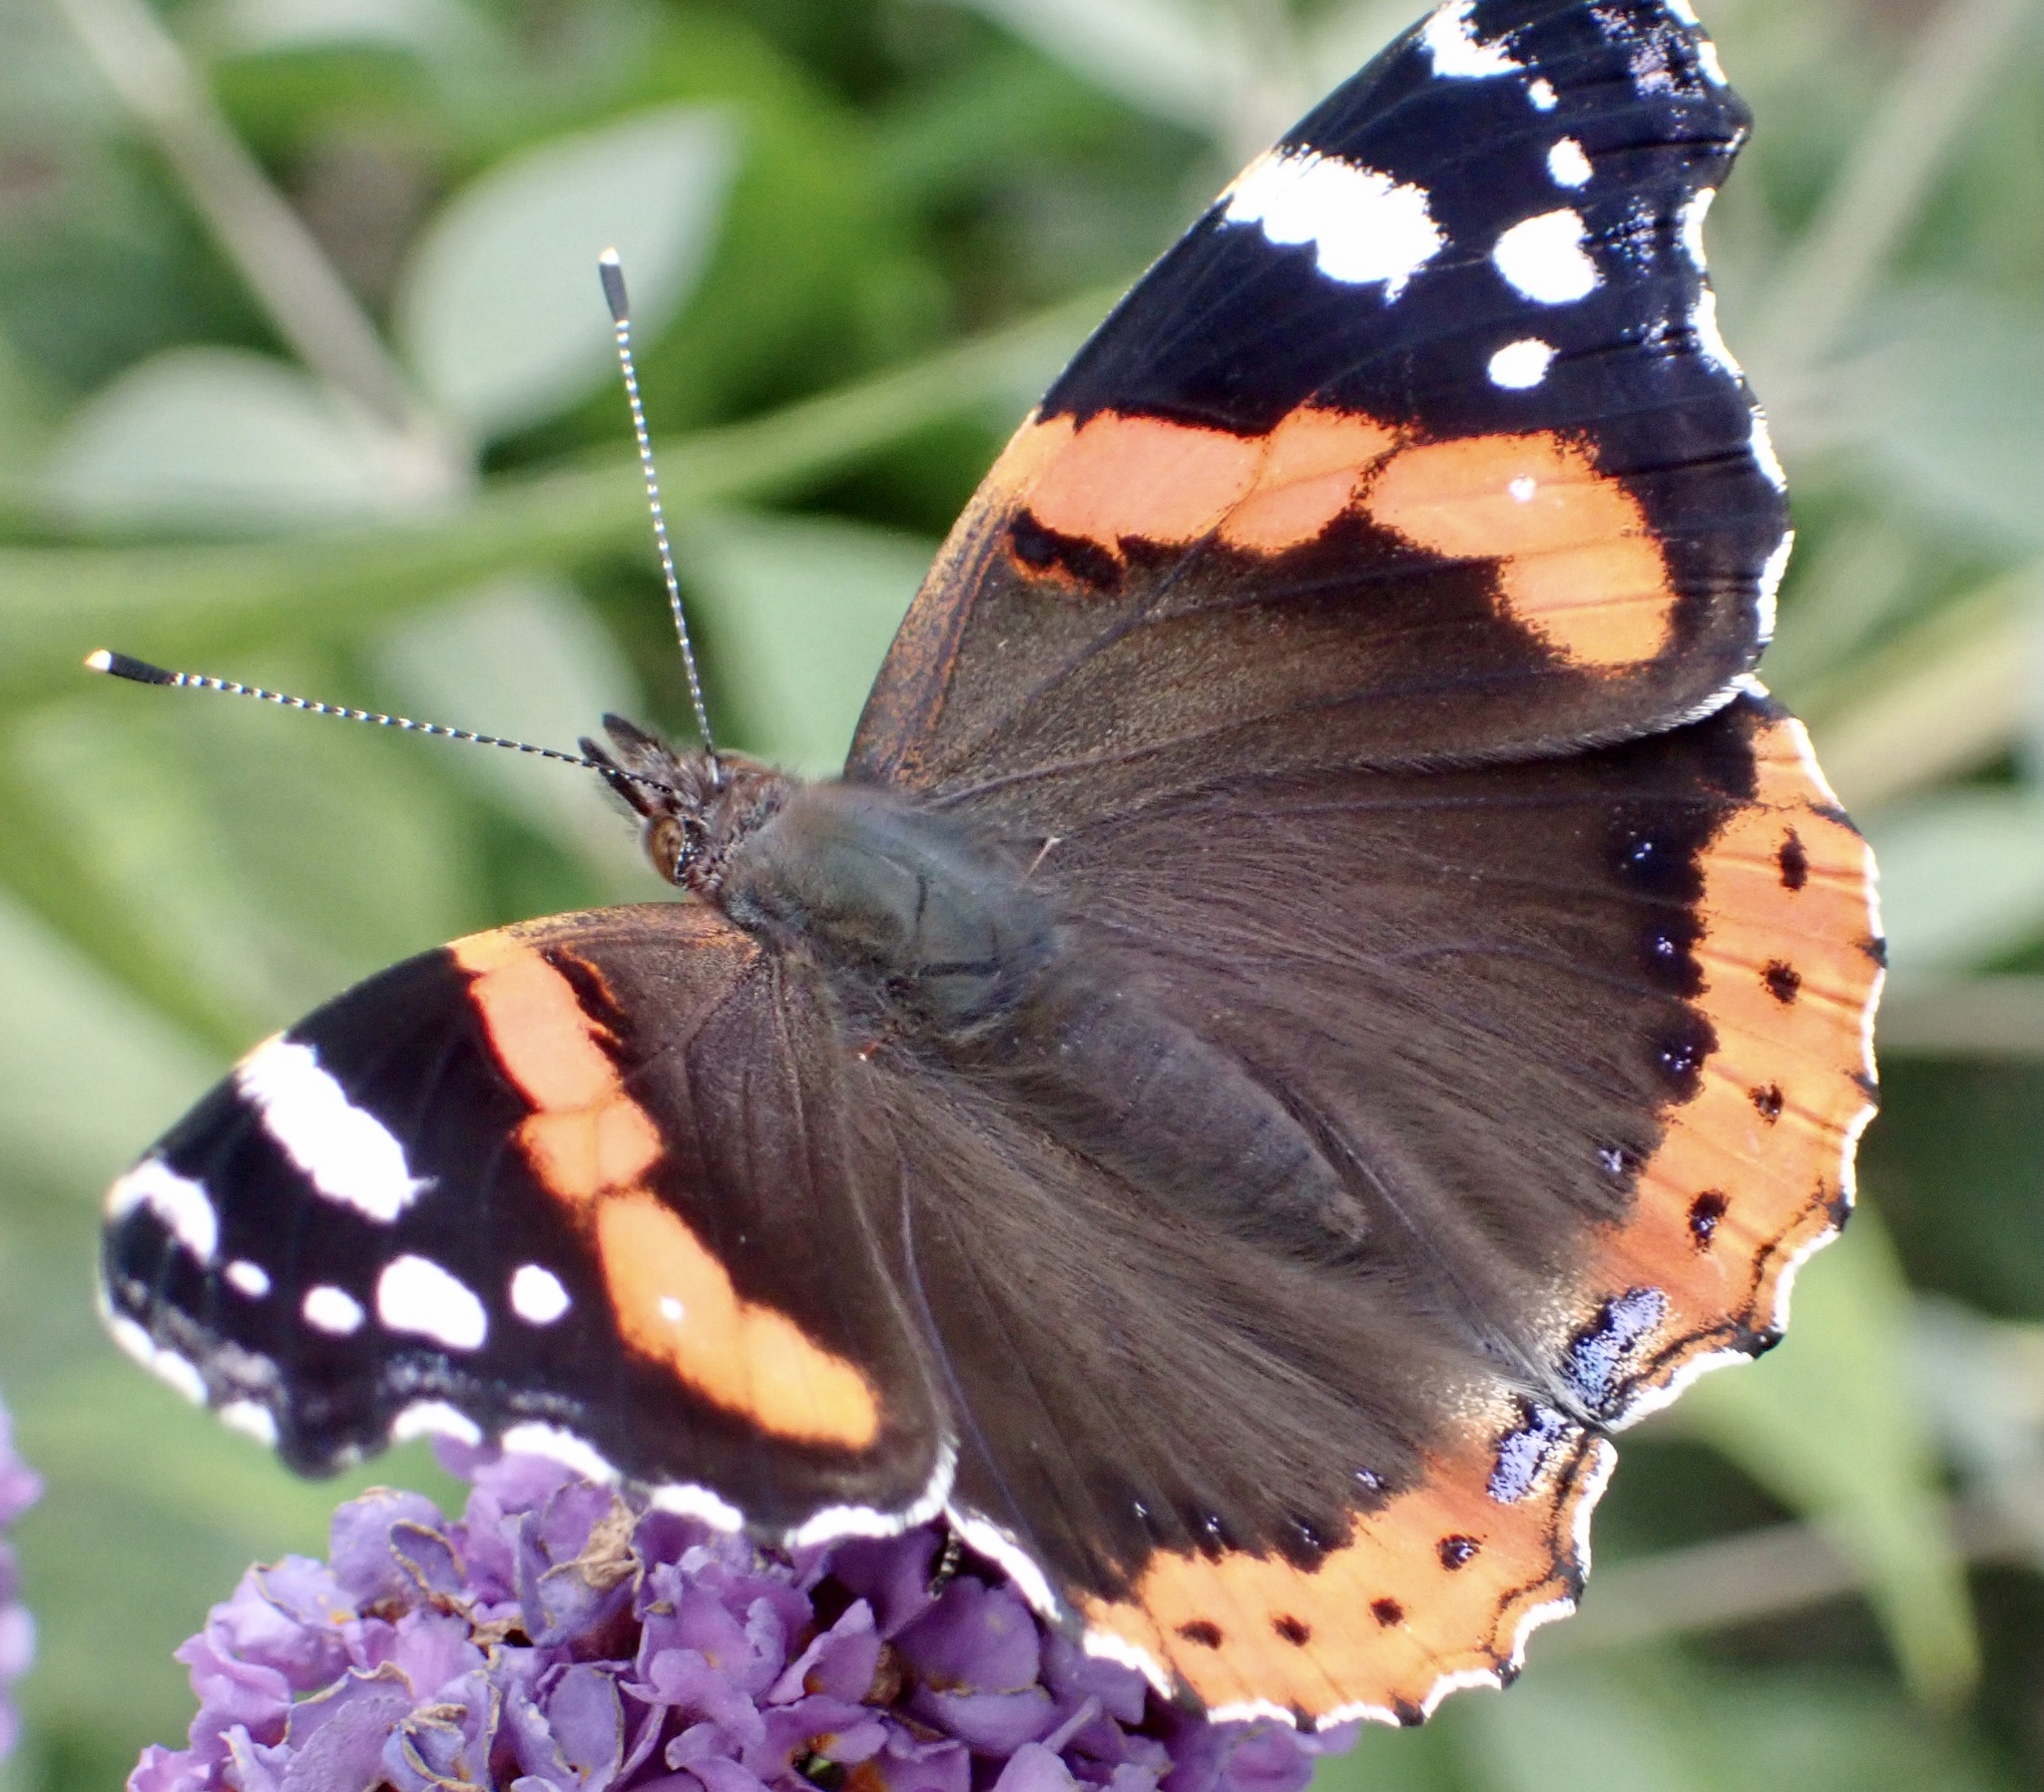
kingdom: Animalia
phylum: Arthropoda
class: Insecta
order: Lepidoptera
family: Nymphalidae
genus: Vanessa
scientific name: Vanessa atalanta
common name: Red admiral
